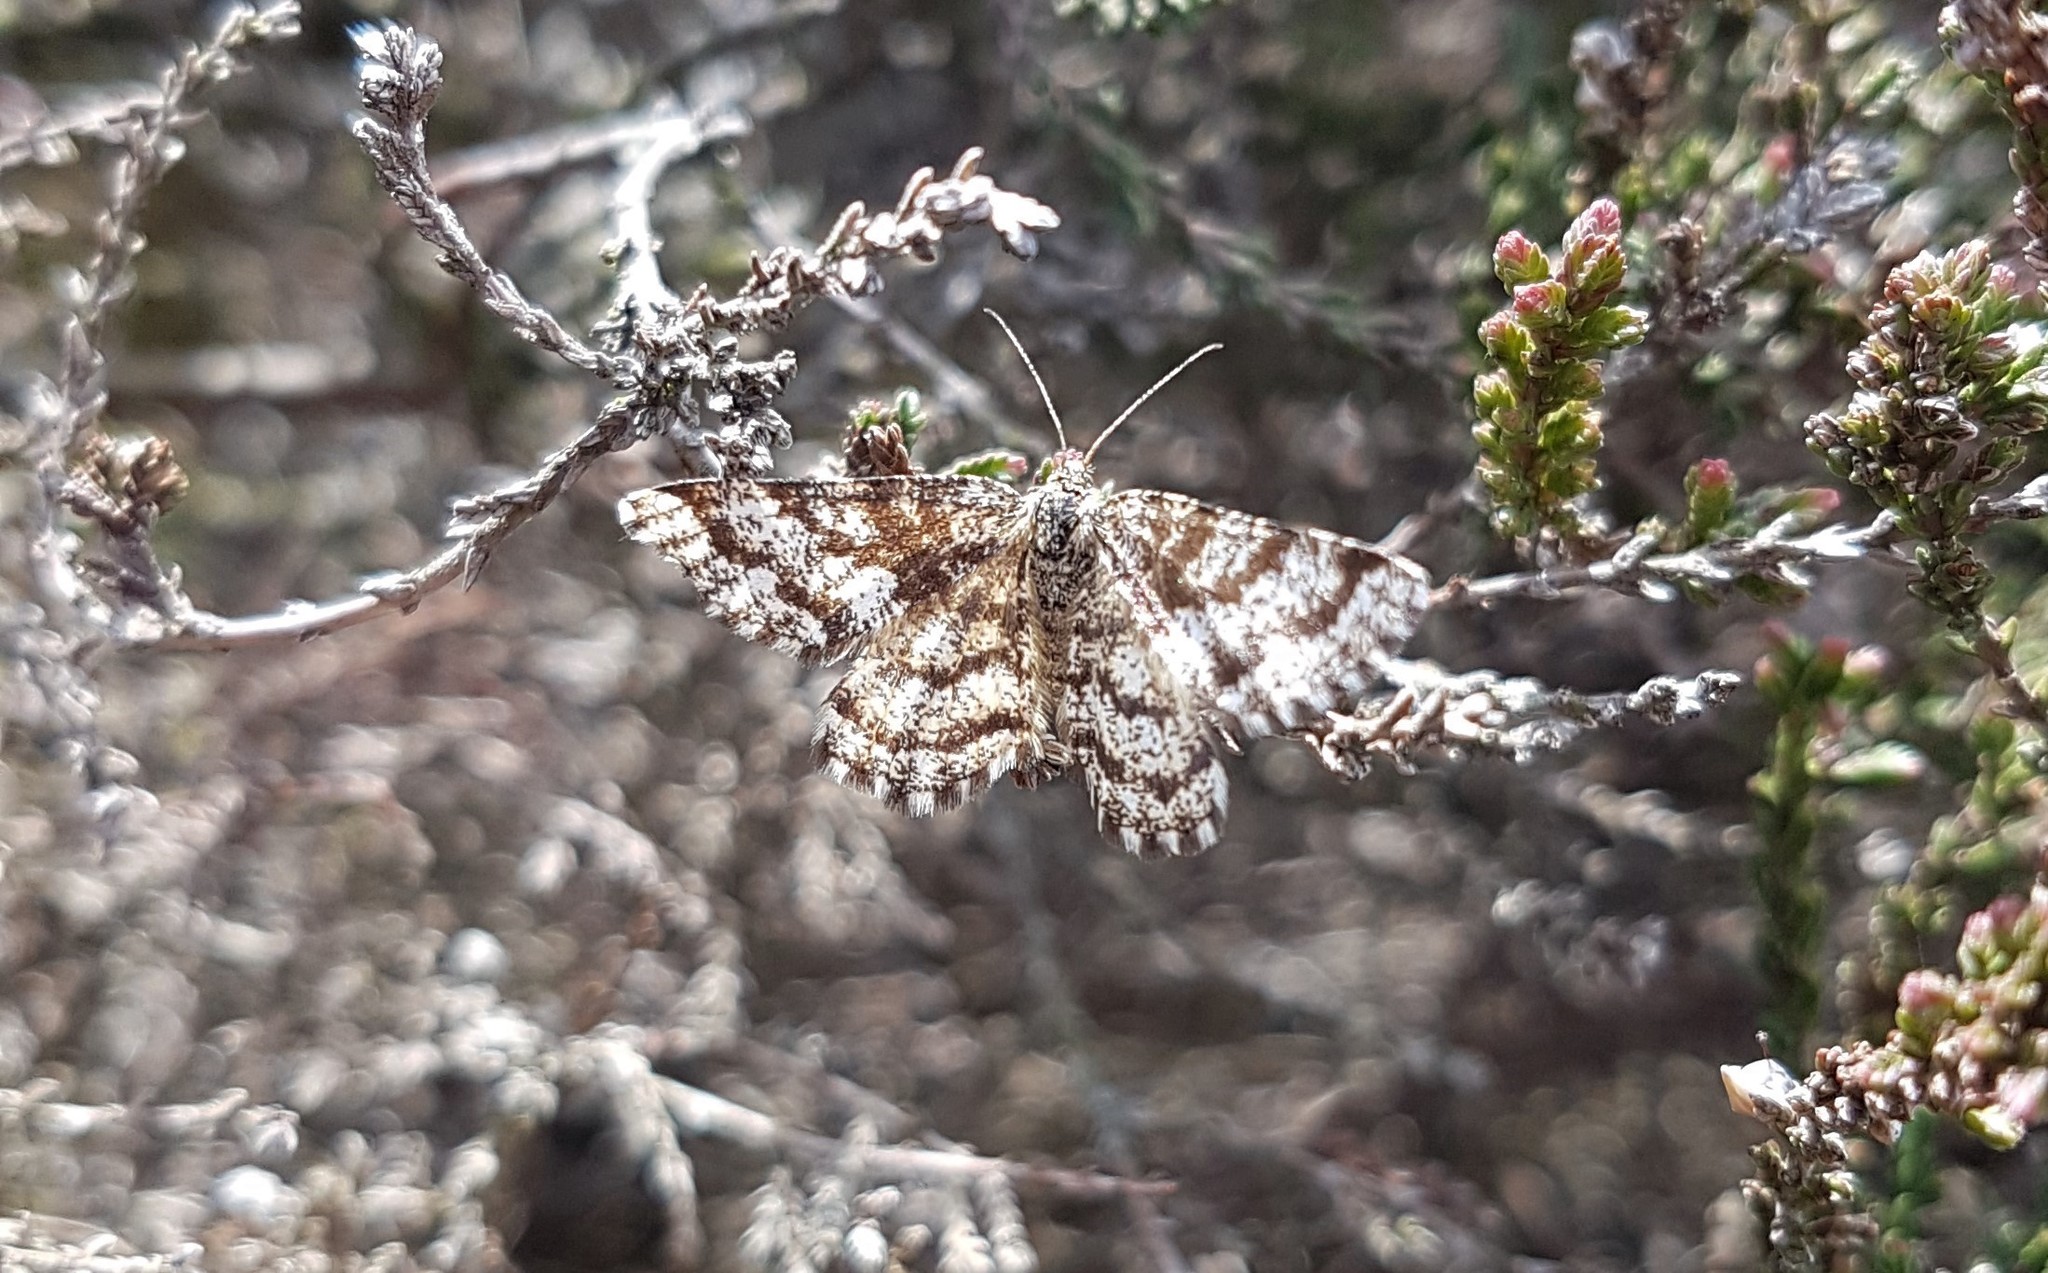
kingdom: Animalia
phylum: Arthropoda
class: Insecta
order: Lepidoptera
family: Geometridae
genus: Ematurga
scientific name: Ematurga atomaria
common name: Common heath
